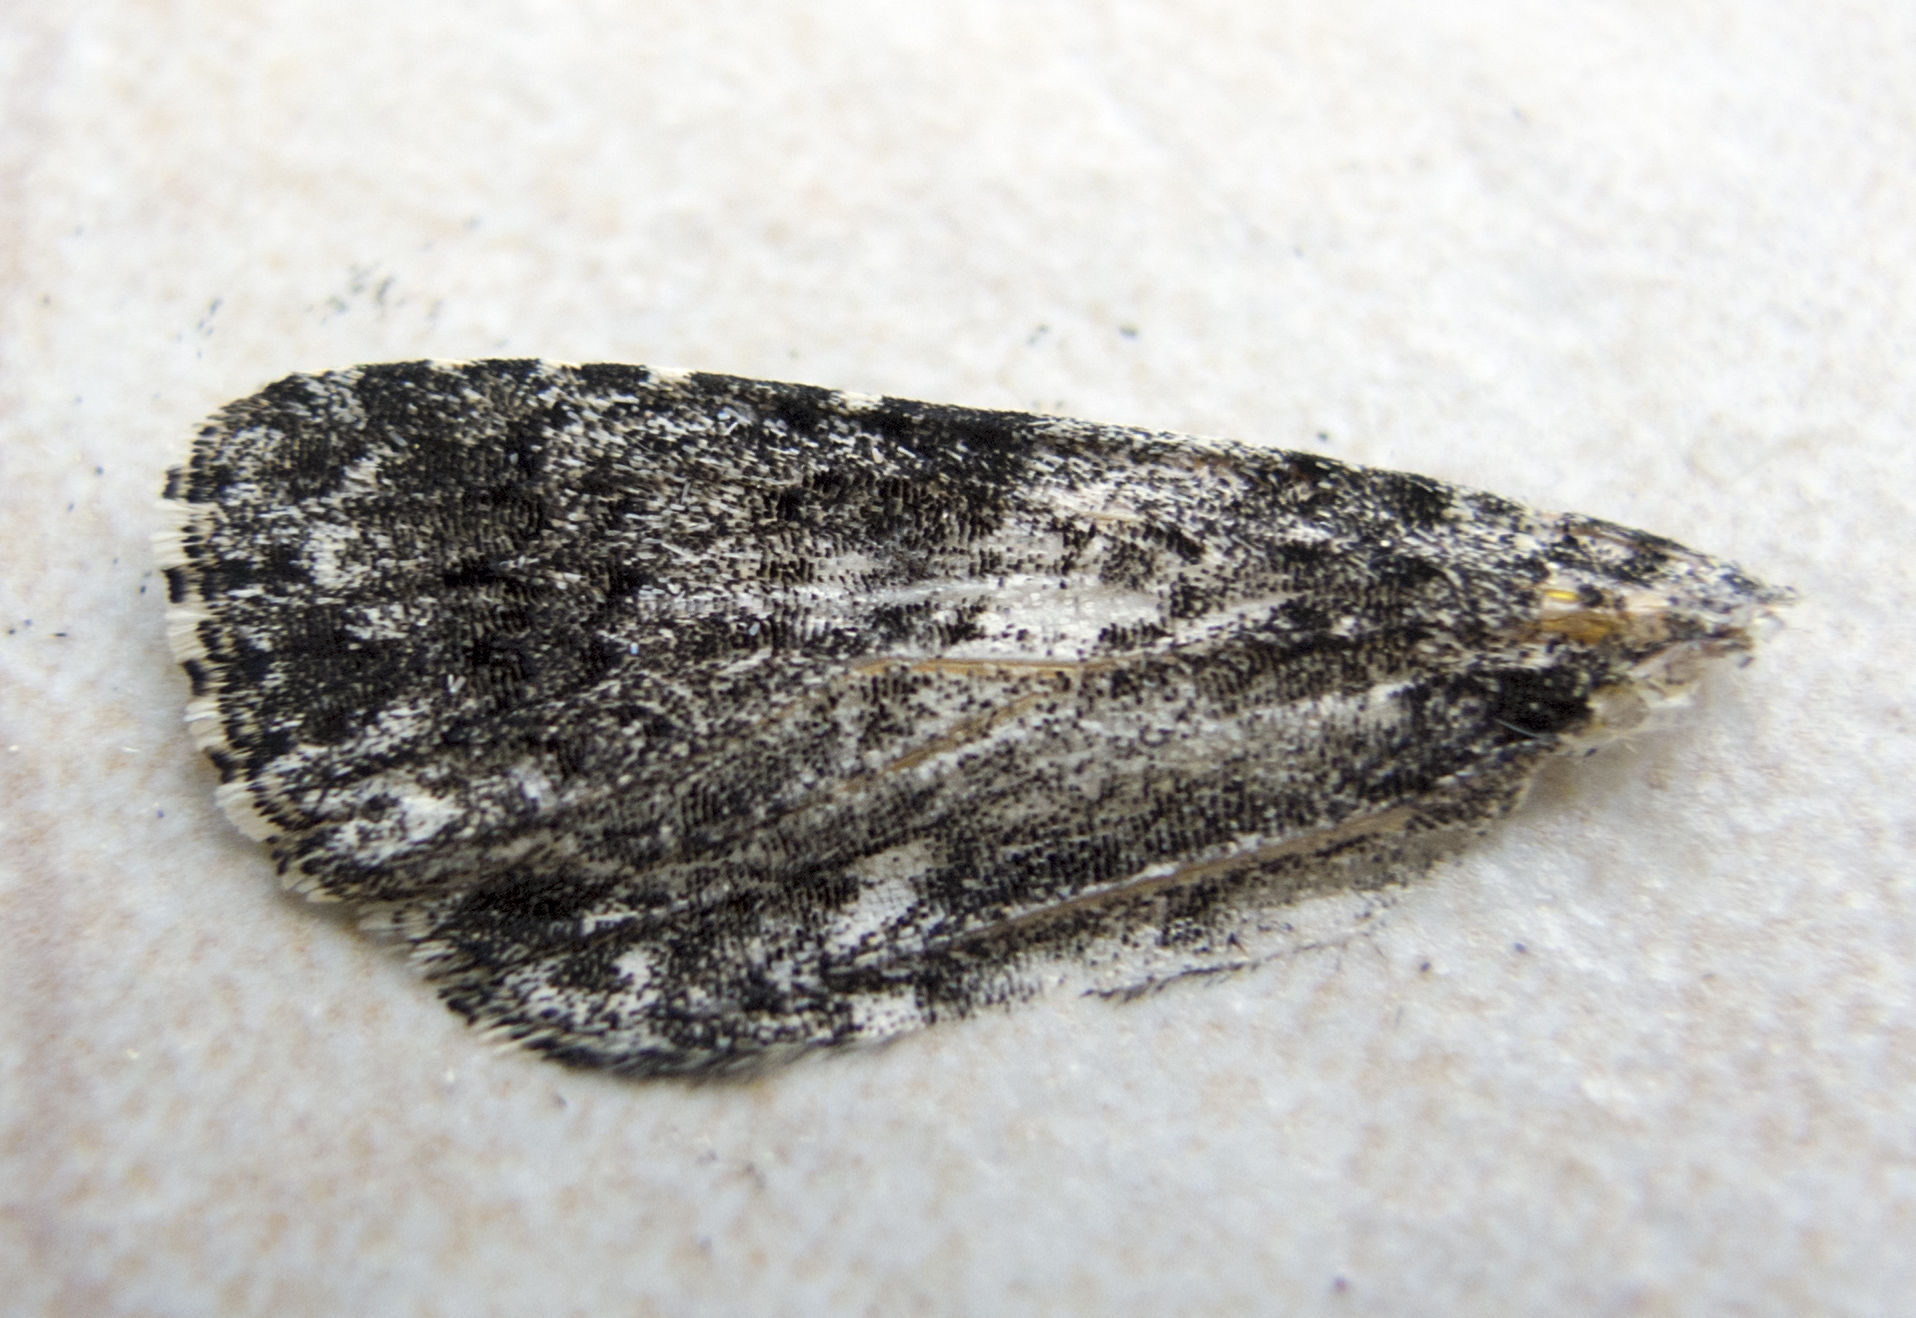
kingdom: Animalia
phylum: Arthropoda
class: Insecta
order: Lepidoptera
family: Noctuidae
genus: Acronicta
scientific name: Acronicta rumicis
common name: Knot grass
